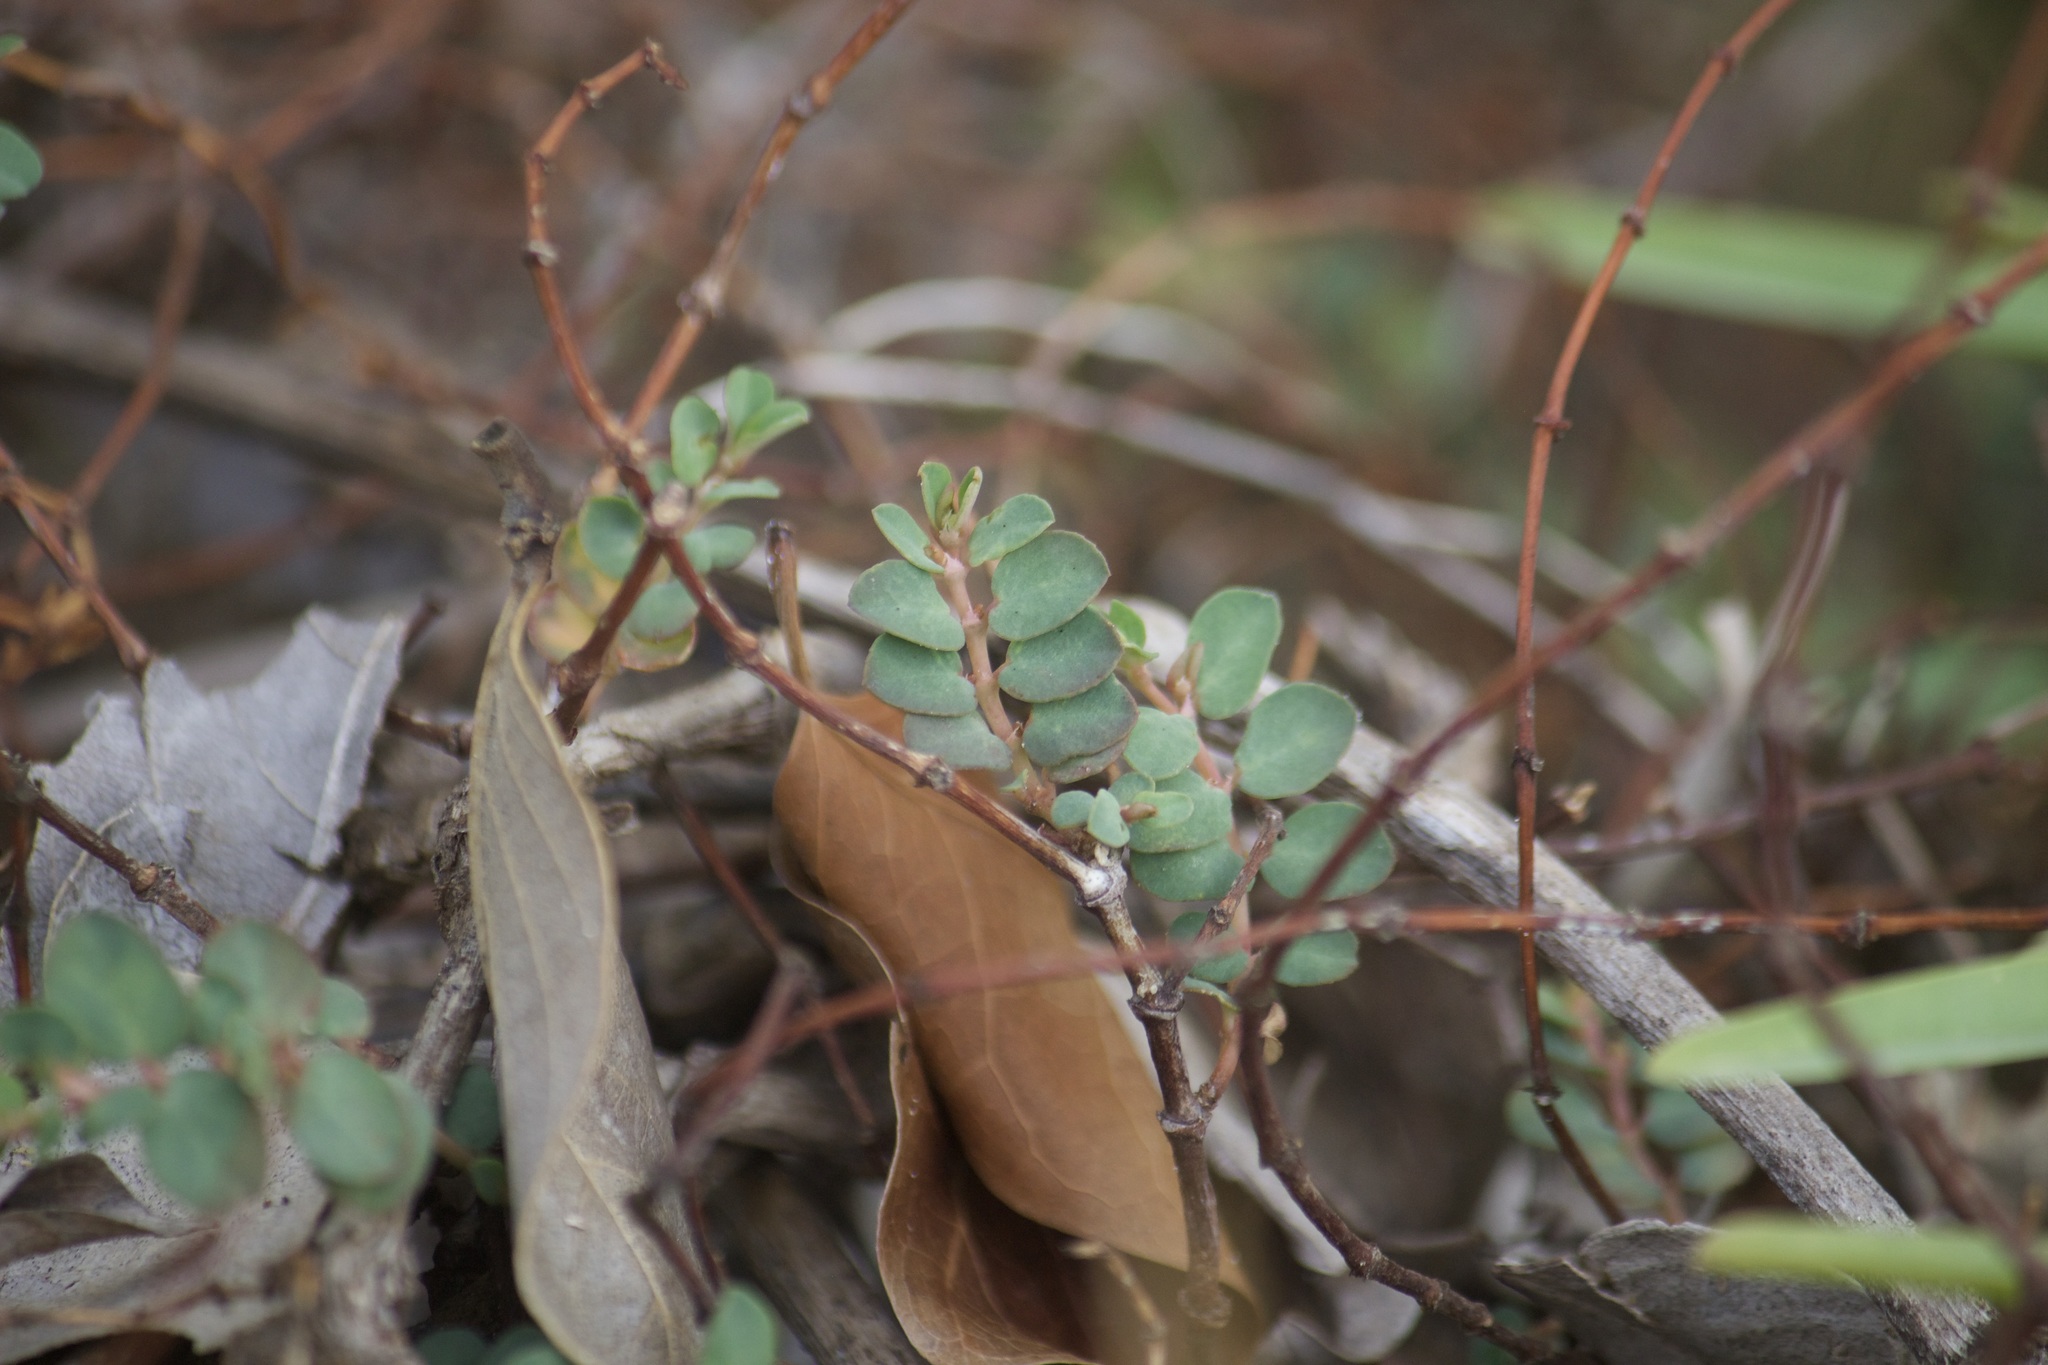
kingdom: Plantae
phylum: Tracheophyta
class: Magnoliopsida
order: Malpighiales
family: Euphorbiaceae
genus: Euphorbia
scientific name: Euphorbia blodgettii
